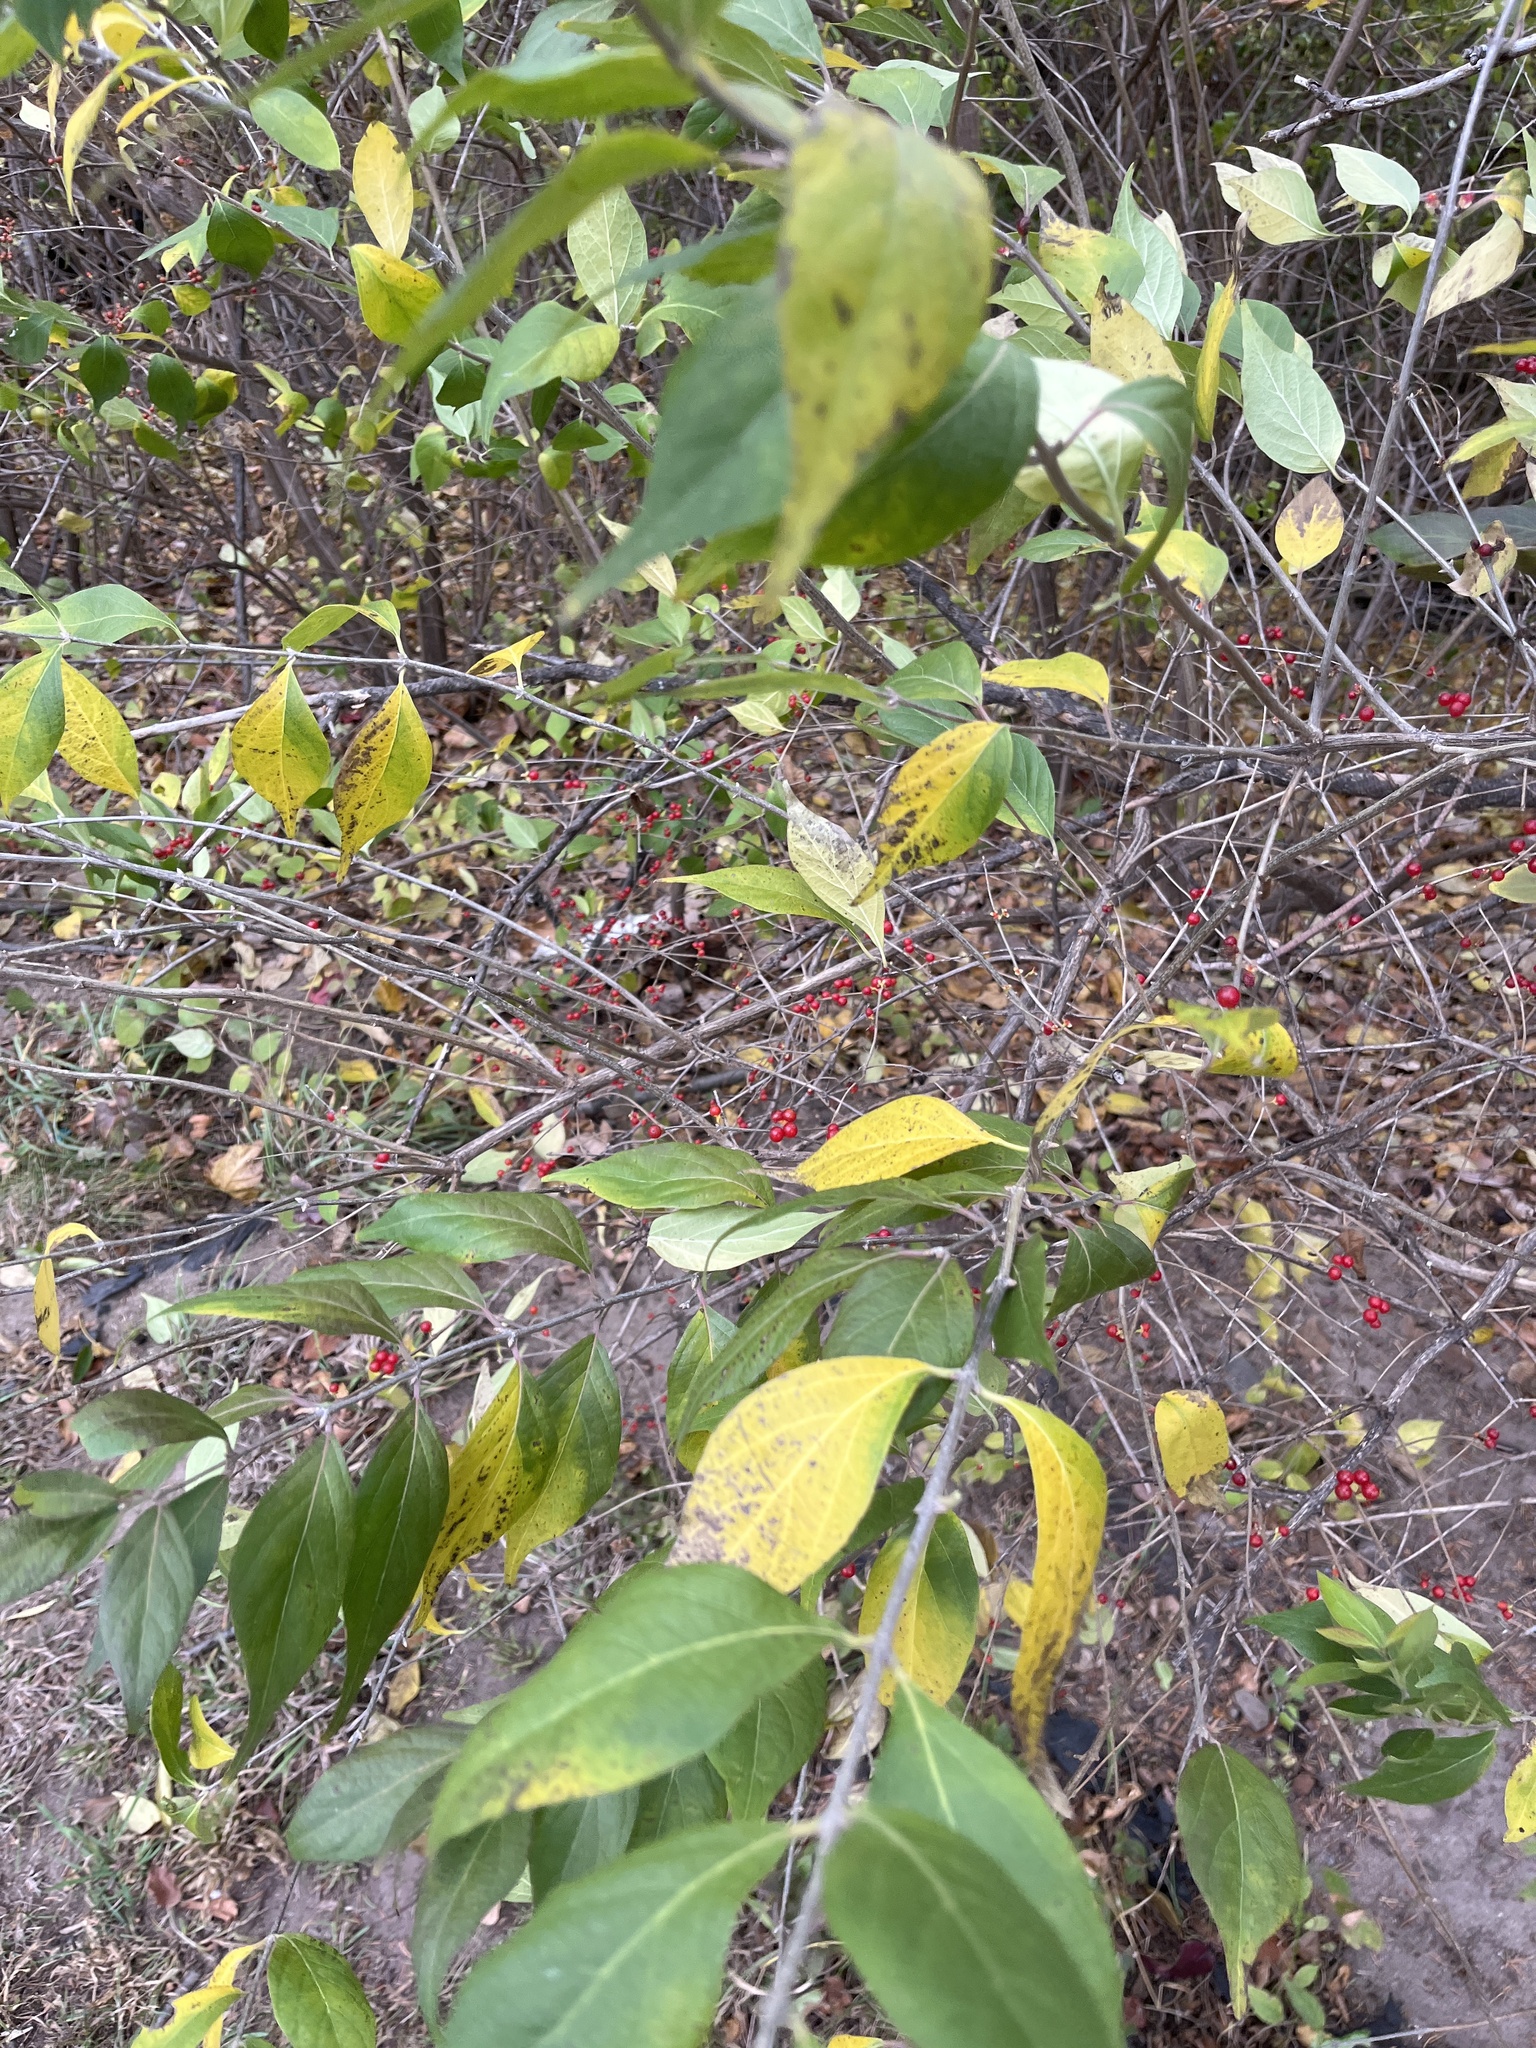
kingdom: Plantae
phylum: Tracheophyta
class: Magnoliopsida
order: Dipsacales
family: Caprifoliaceae
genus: Lonicera
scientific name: Lonicera maackii
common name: Amur honeysuckle
